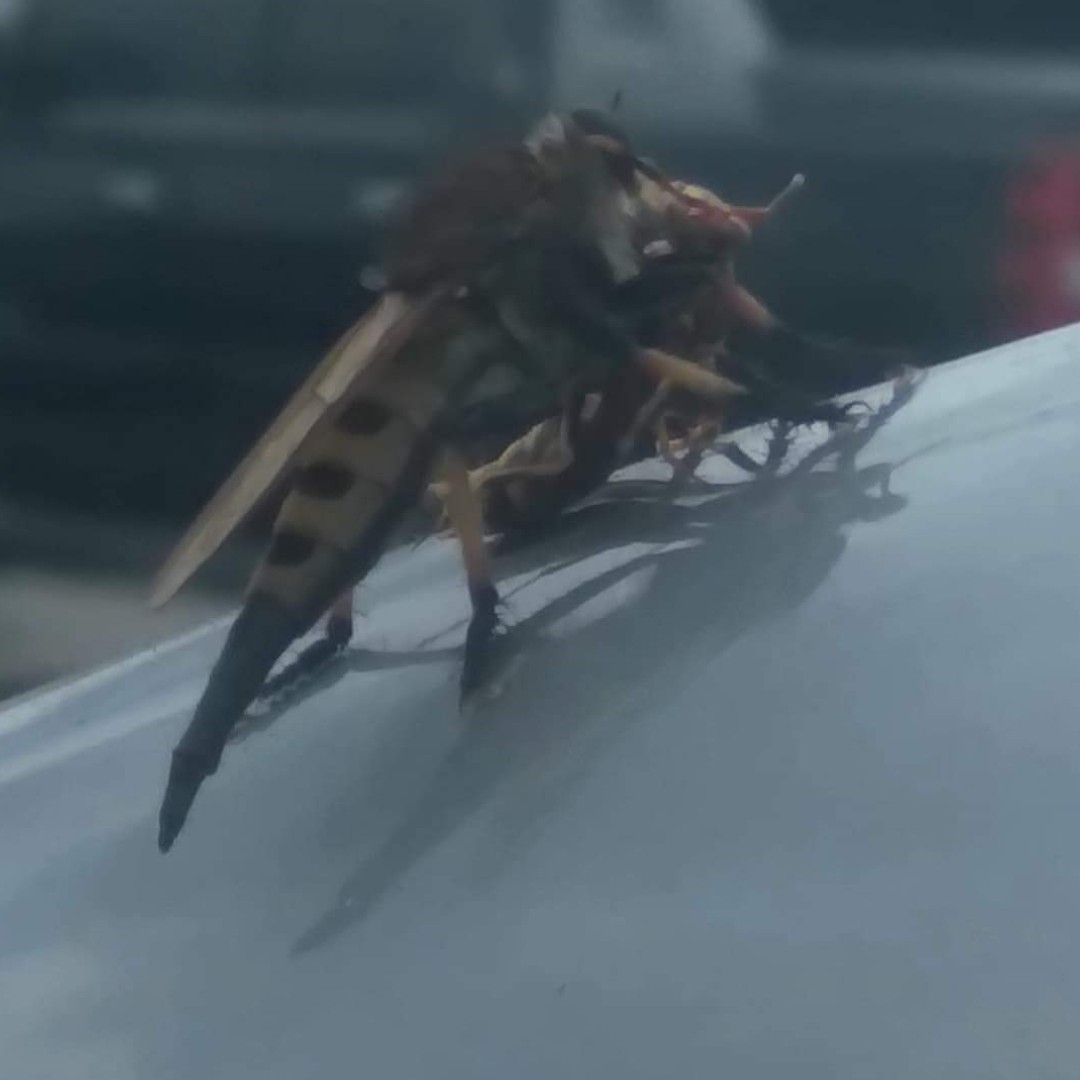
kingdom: Animalia
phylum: Arthropoda
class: Insecta
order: Diptera
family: Asilidae
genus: Promachus
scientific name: Promachus rufipes
